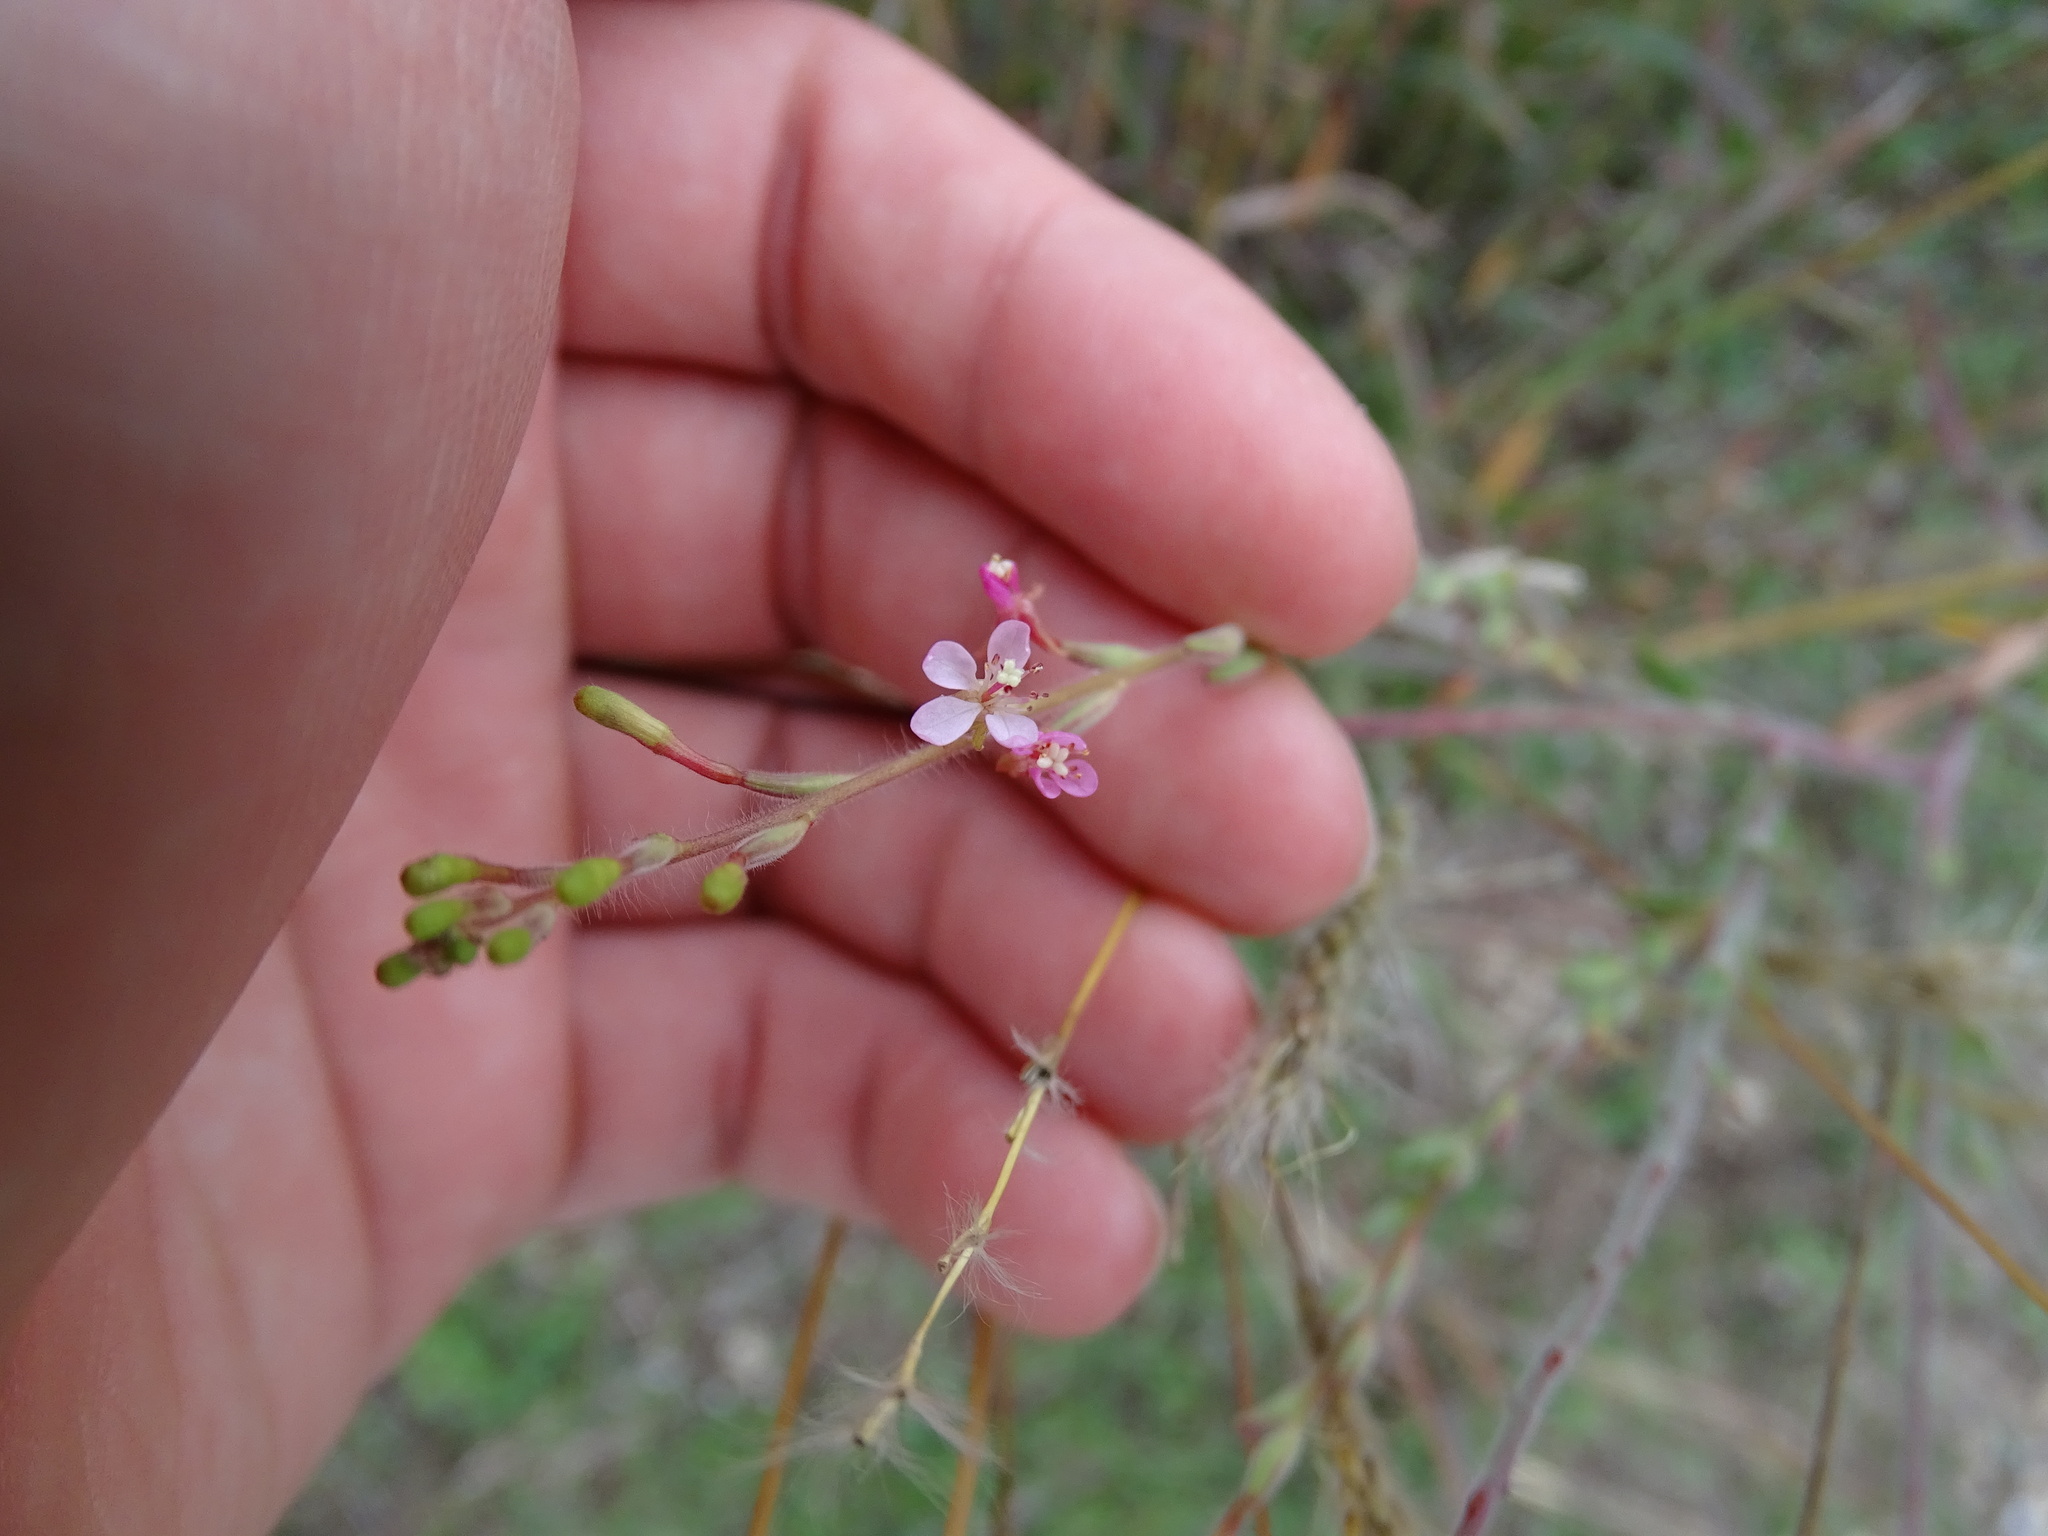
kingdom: Plantae
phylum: Tracheophyta
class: Magnoliopsida
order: Myrtales
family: Onagraceae
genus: Oenothera
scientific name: Oenothera curtiflora
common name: Velvetweed
